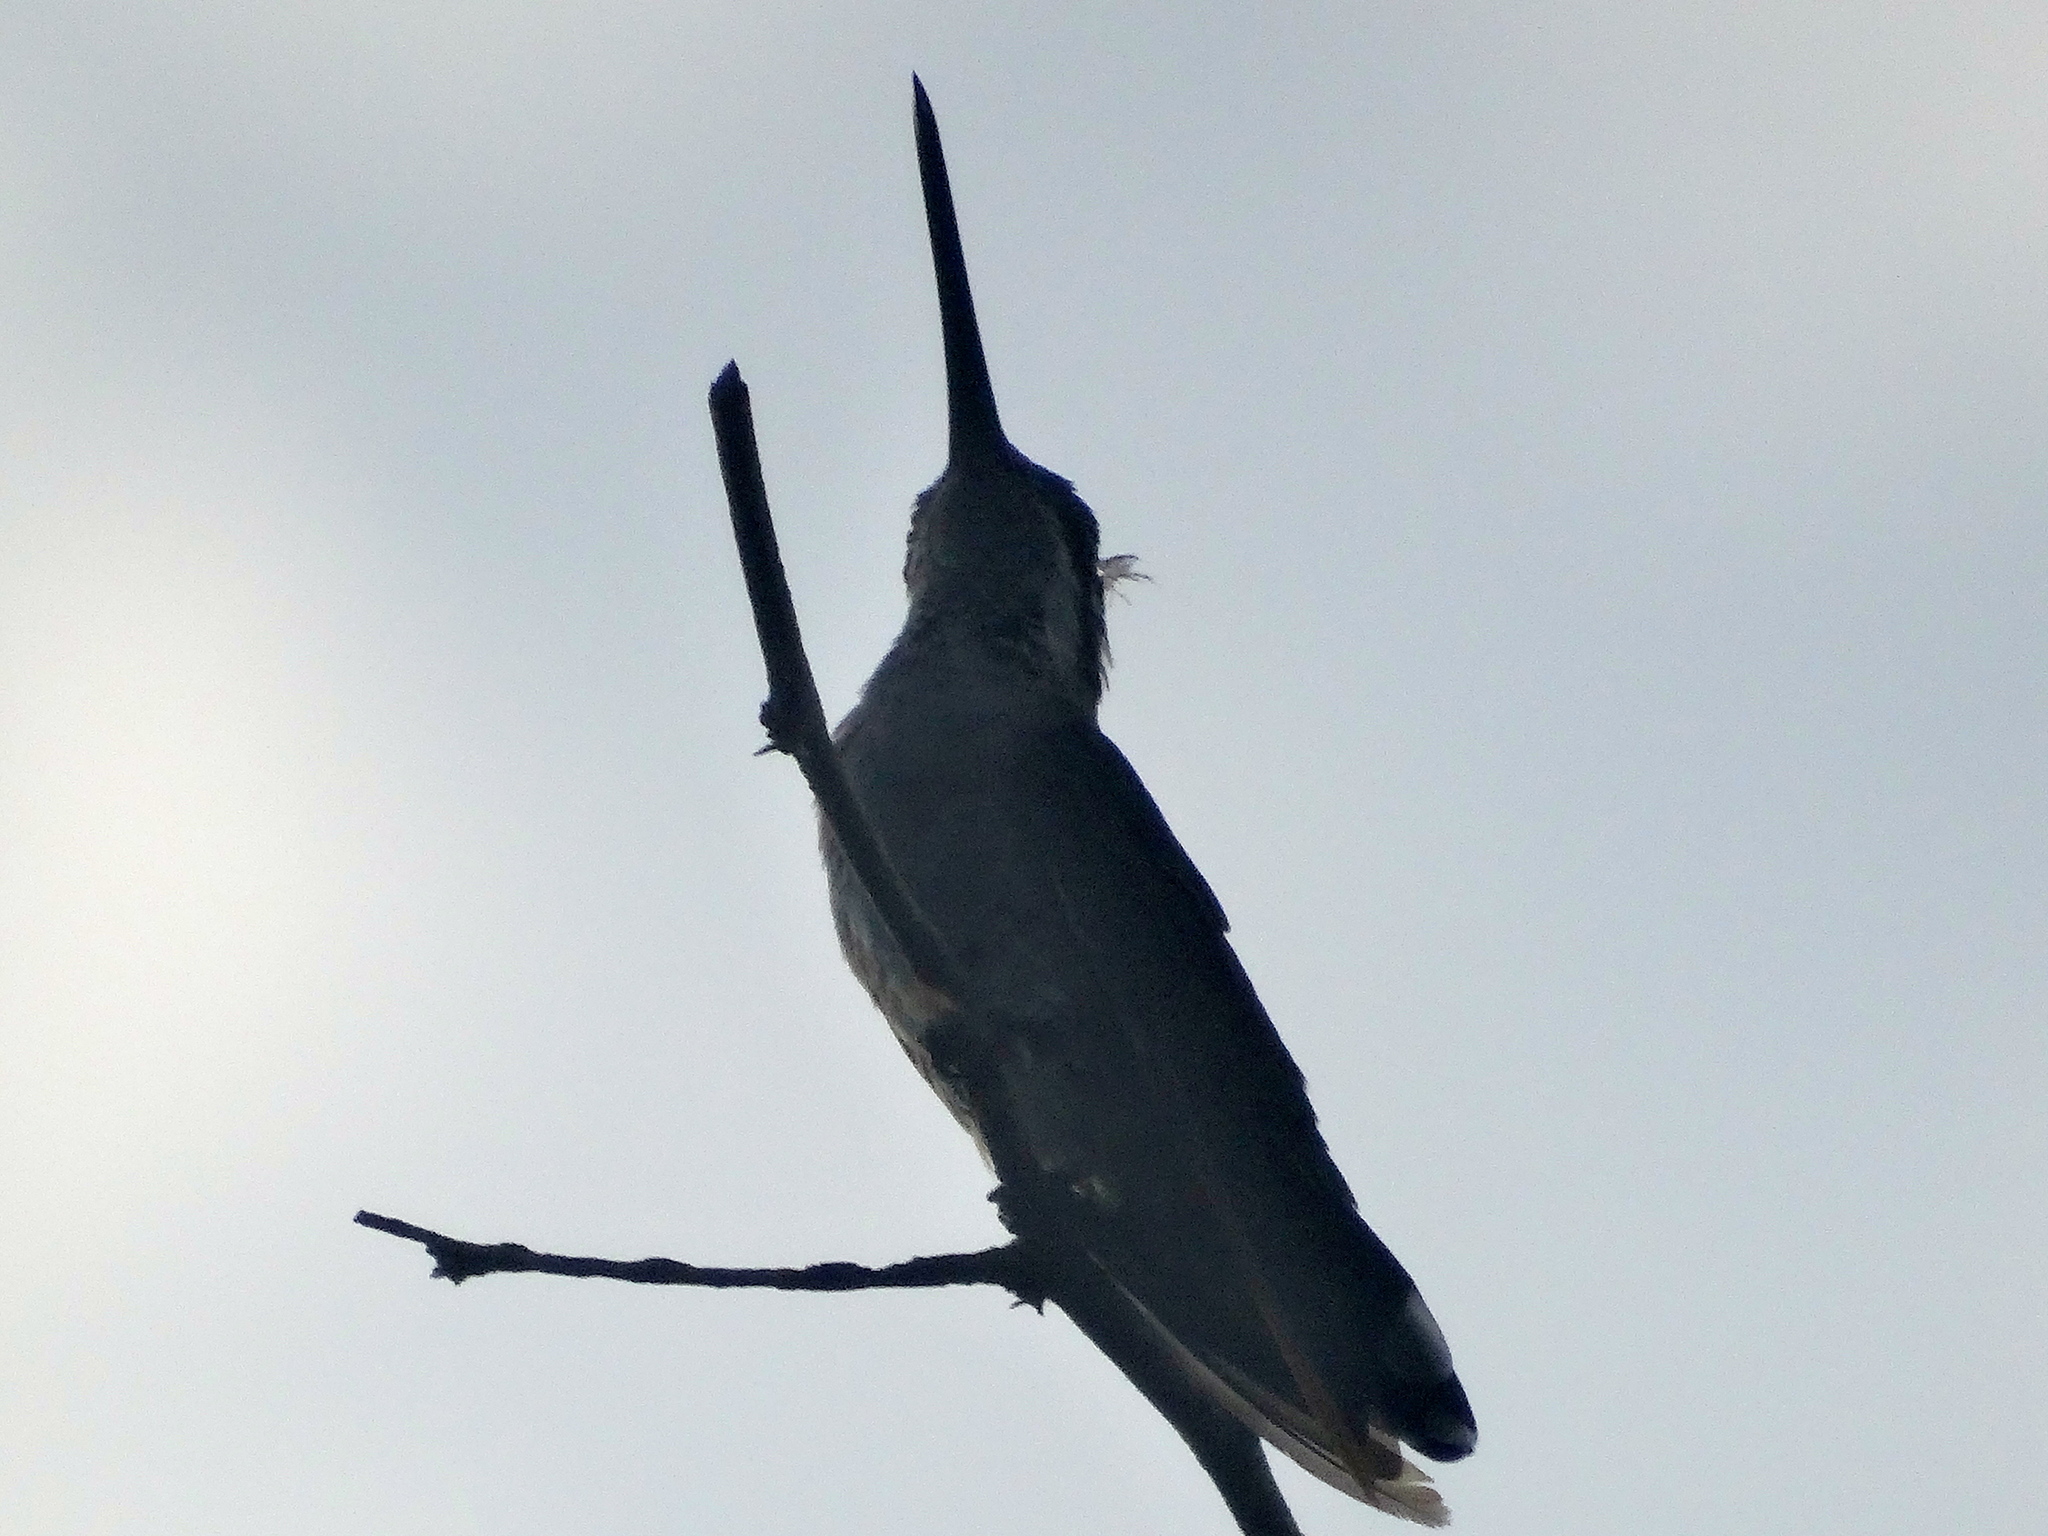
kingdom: Animalia
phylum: Chordata
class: Aves
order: Apodiformes
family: Trochilidae
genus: Heliomaster
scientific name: Heliomaster constantii
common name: Plain-capped starthroat
